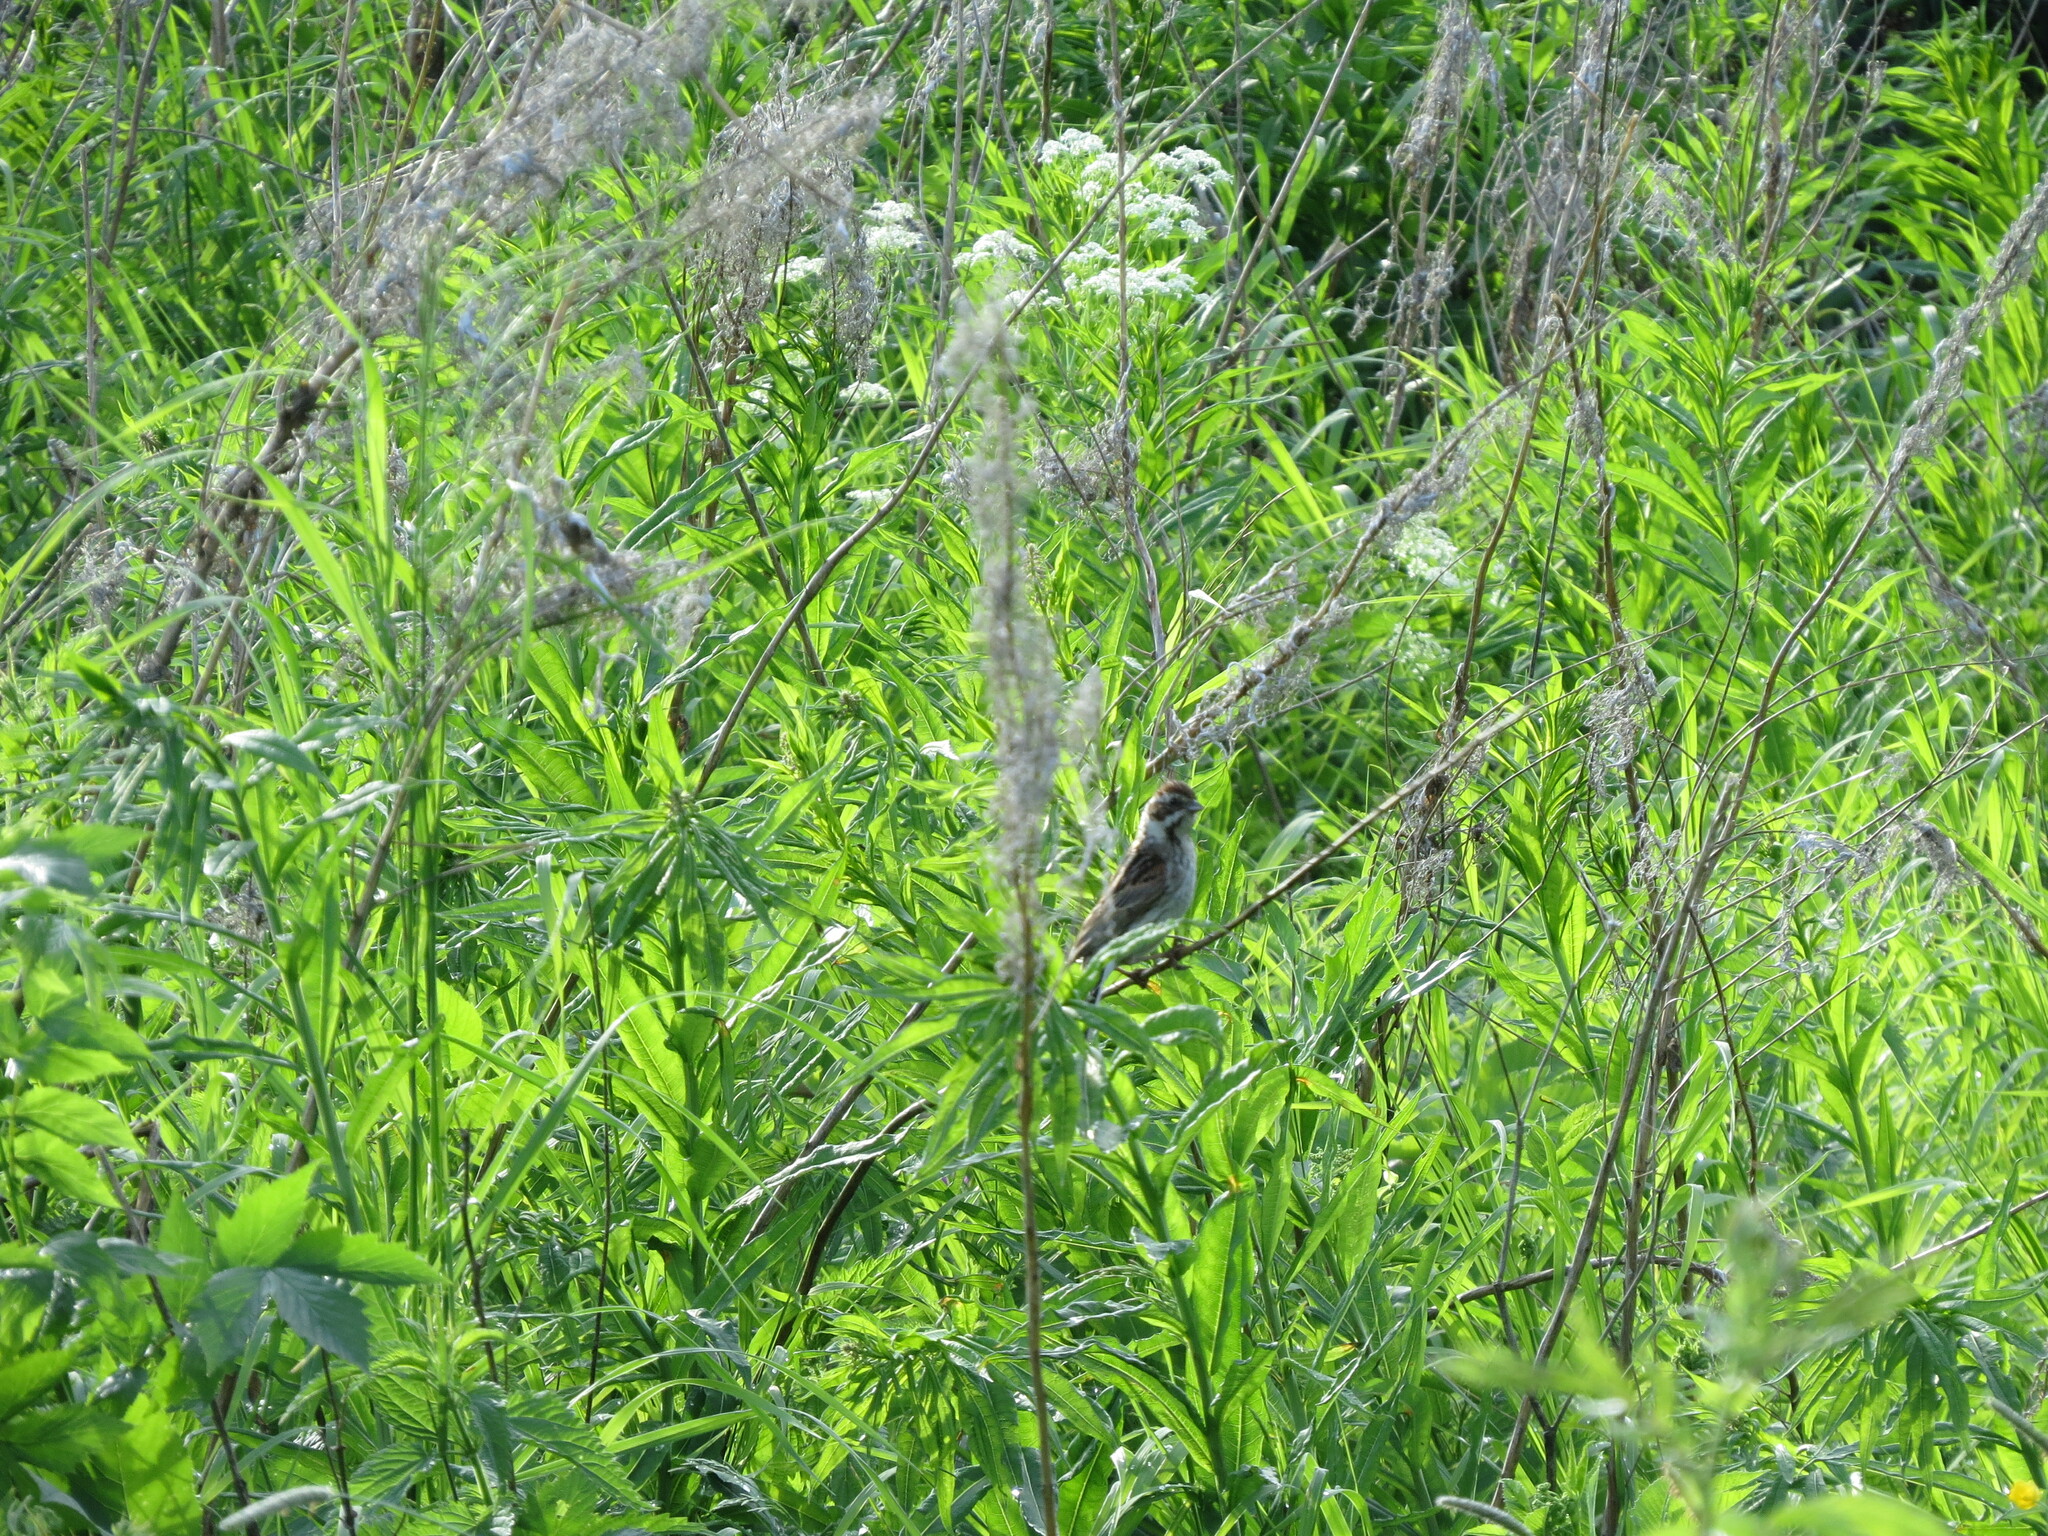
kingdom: Animalia
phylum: Chordata
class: Aves
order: Passeriformes
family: Emberizidae
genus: Emberiza
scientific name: Emberiza schoeniclus
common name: Reed bunting
